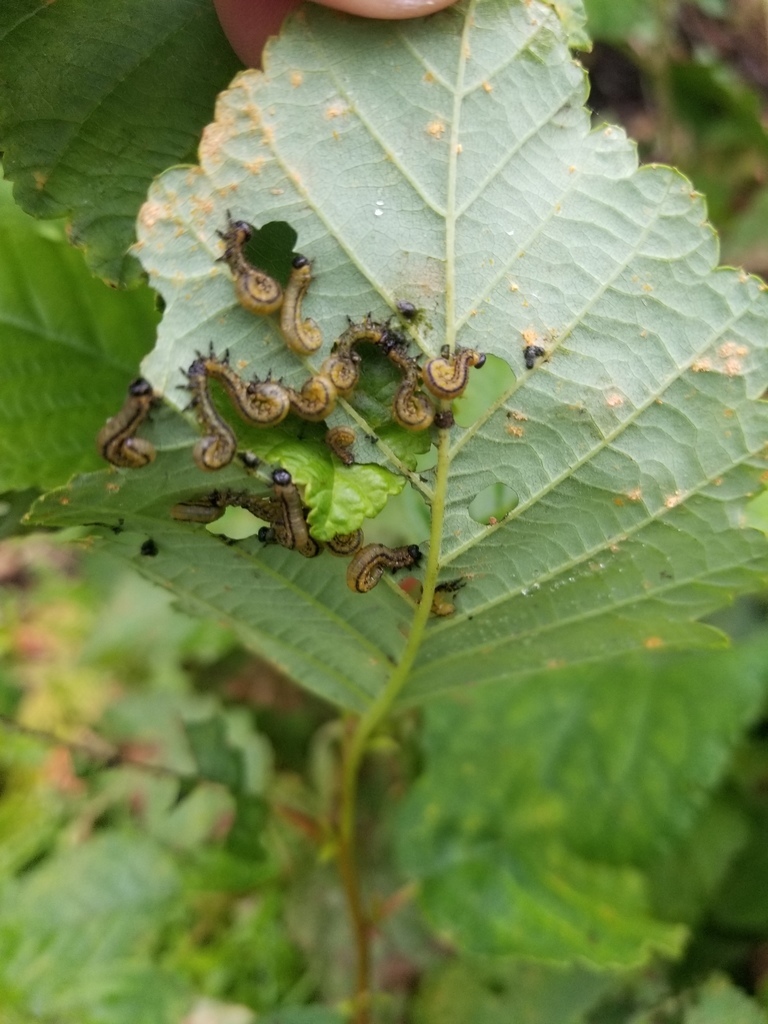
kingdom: Animalia
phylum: Arthropoda
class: Insecta
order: Hymenoptera
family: Tenthredinidae
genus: Hemichroa
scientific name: Hemichroa crocea
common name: Striped alder sawfly
